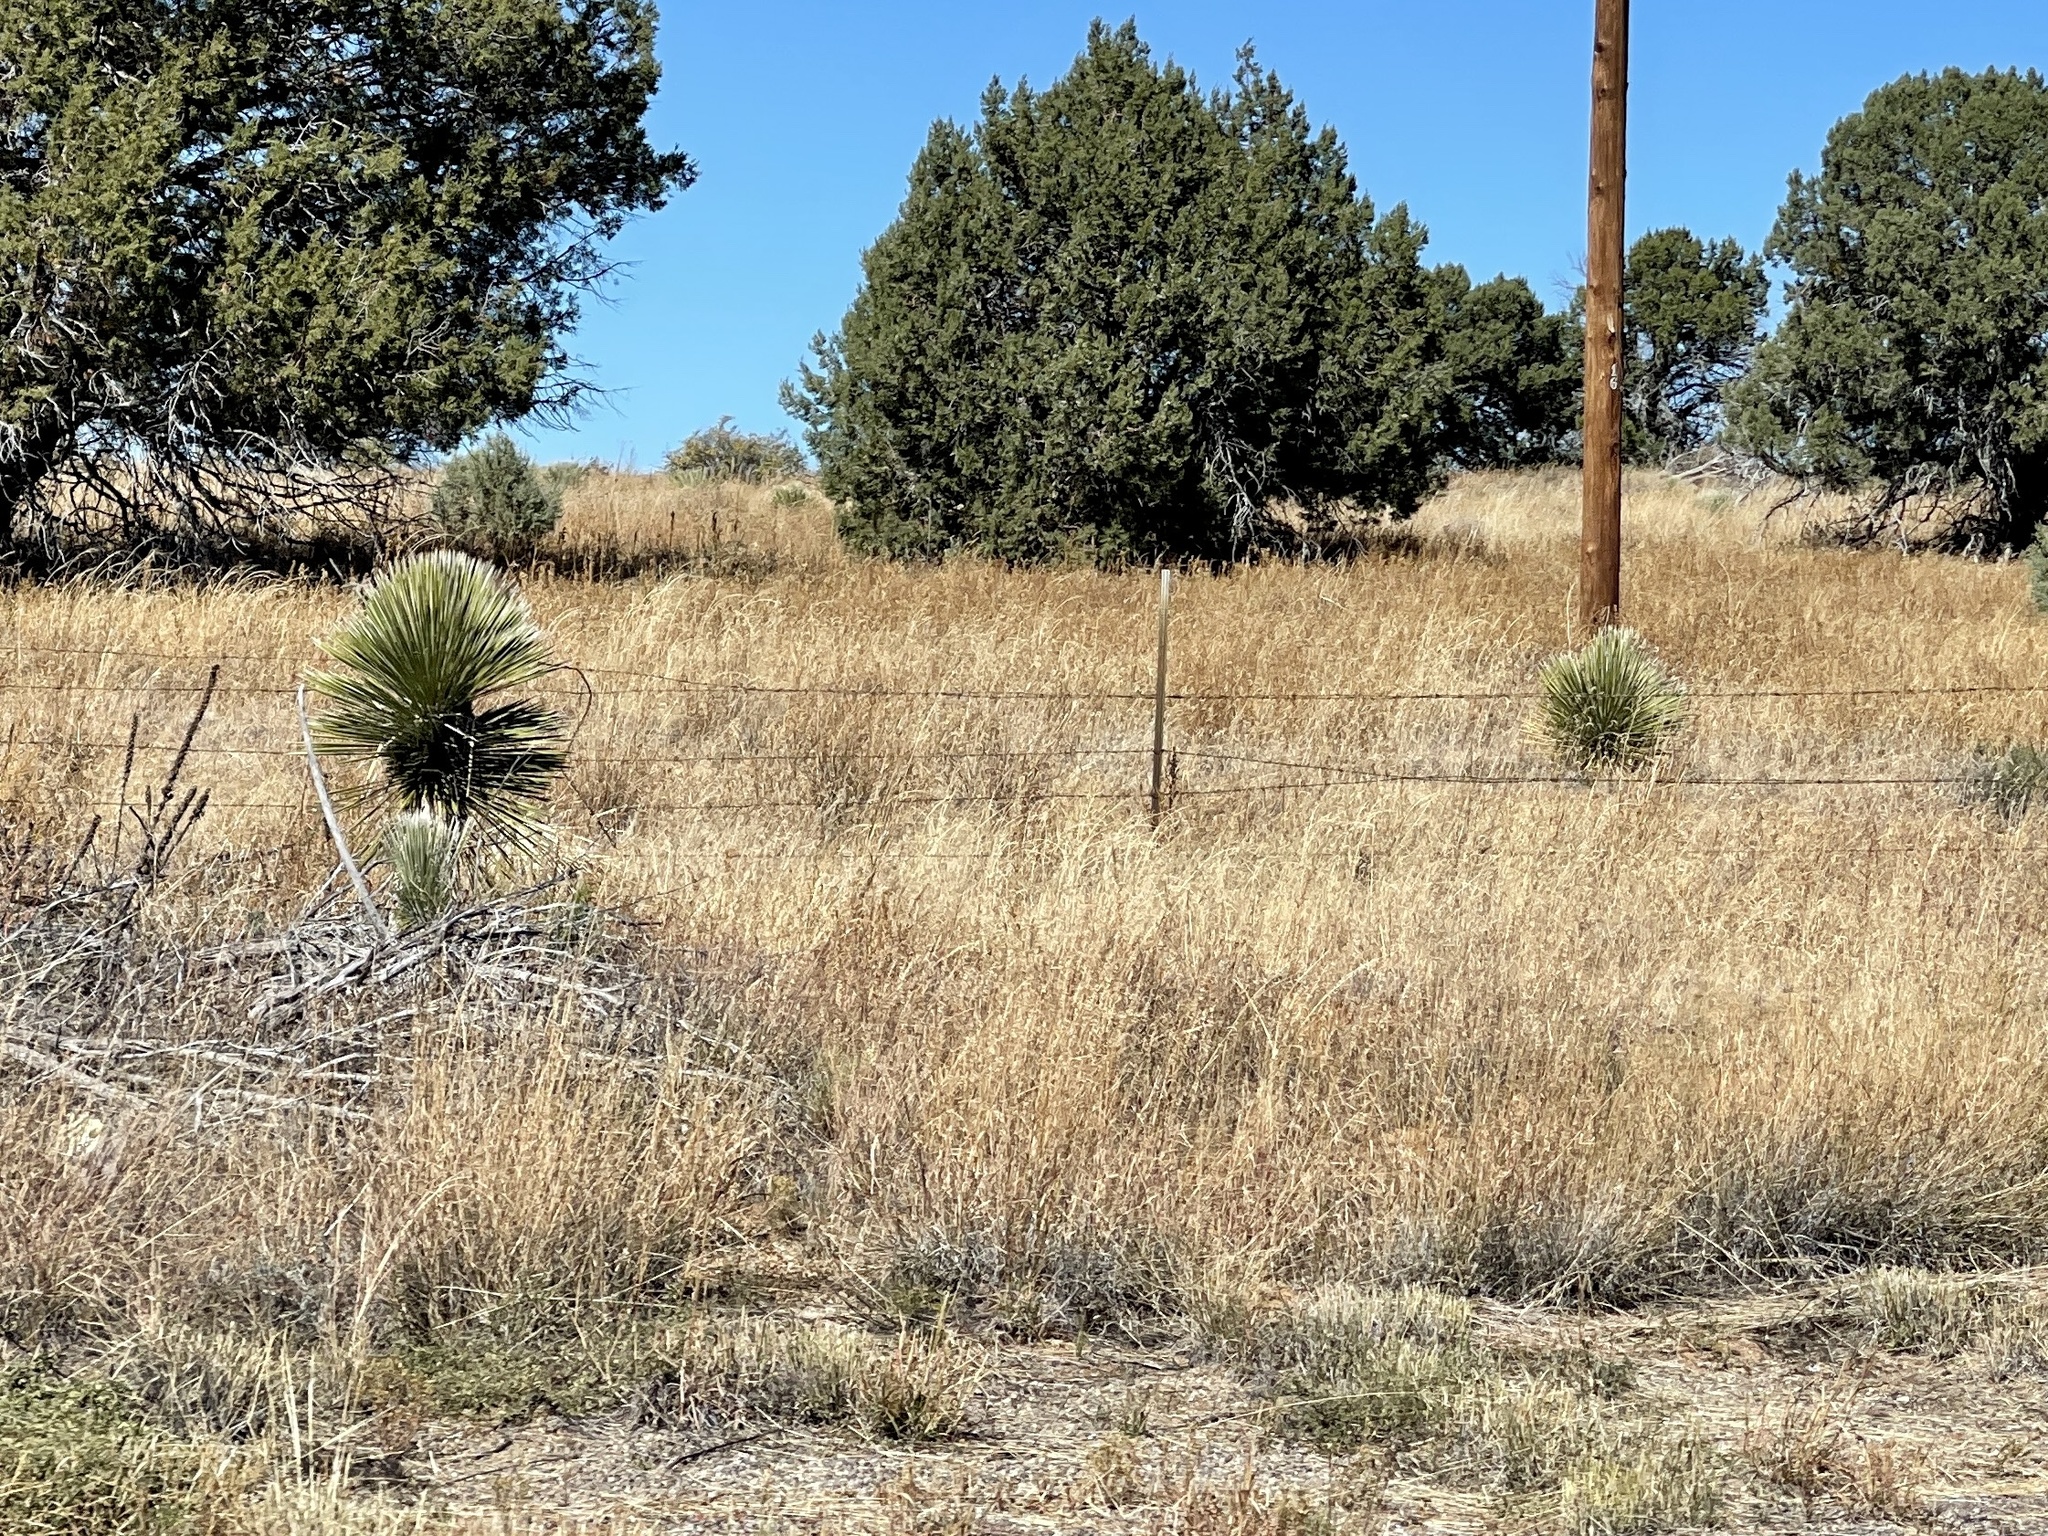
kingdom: Plantae
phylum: Tracheophyta
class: Liliopsida
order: Asparagales
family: Asparagaceae
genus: Yucca
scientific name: Yucca elata
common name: Palmella
